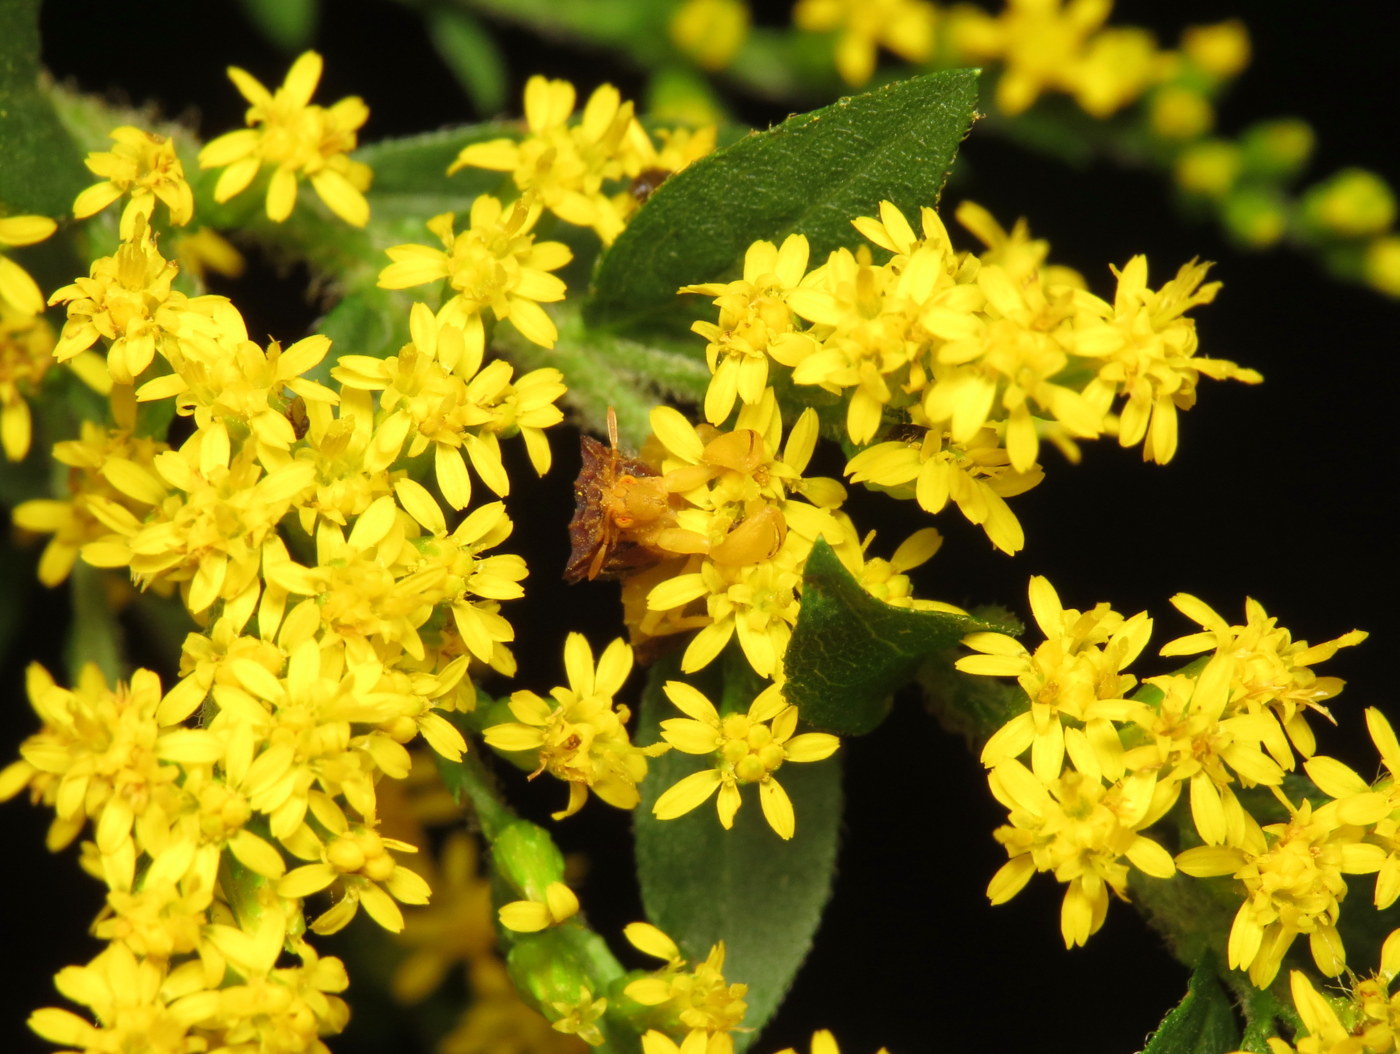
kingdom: Animalia
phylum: Arthropoda
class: Insecta
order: Hemiptera
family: Reduviidae
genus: Phymata
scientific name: Phymata pennsylvanica
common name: Pennsylvania ambush bug
